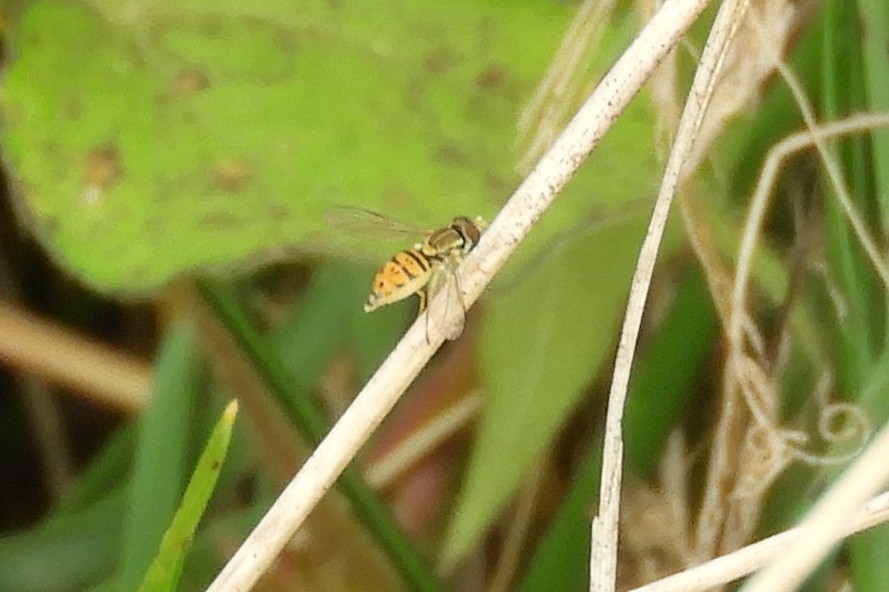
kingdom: Animalia
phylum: Arthropoda
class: Insecta
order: Diptera
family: Syrphidae
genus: Toxomerus
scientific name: Toxomerus marginatus
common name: Syrphid fly
